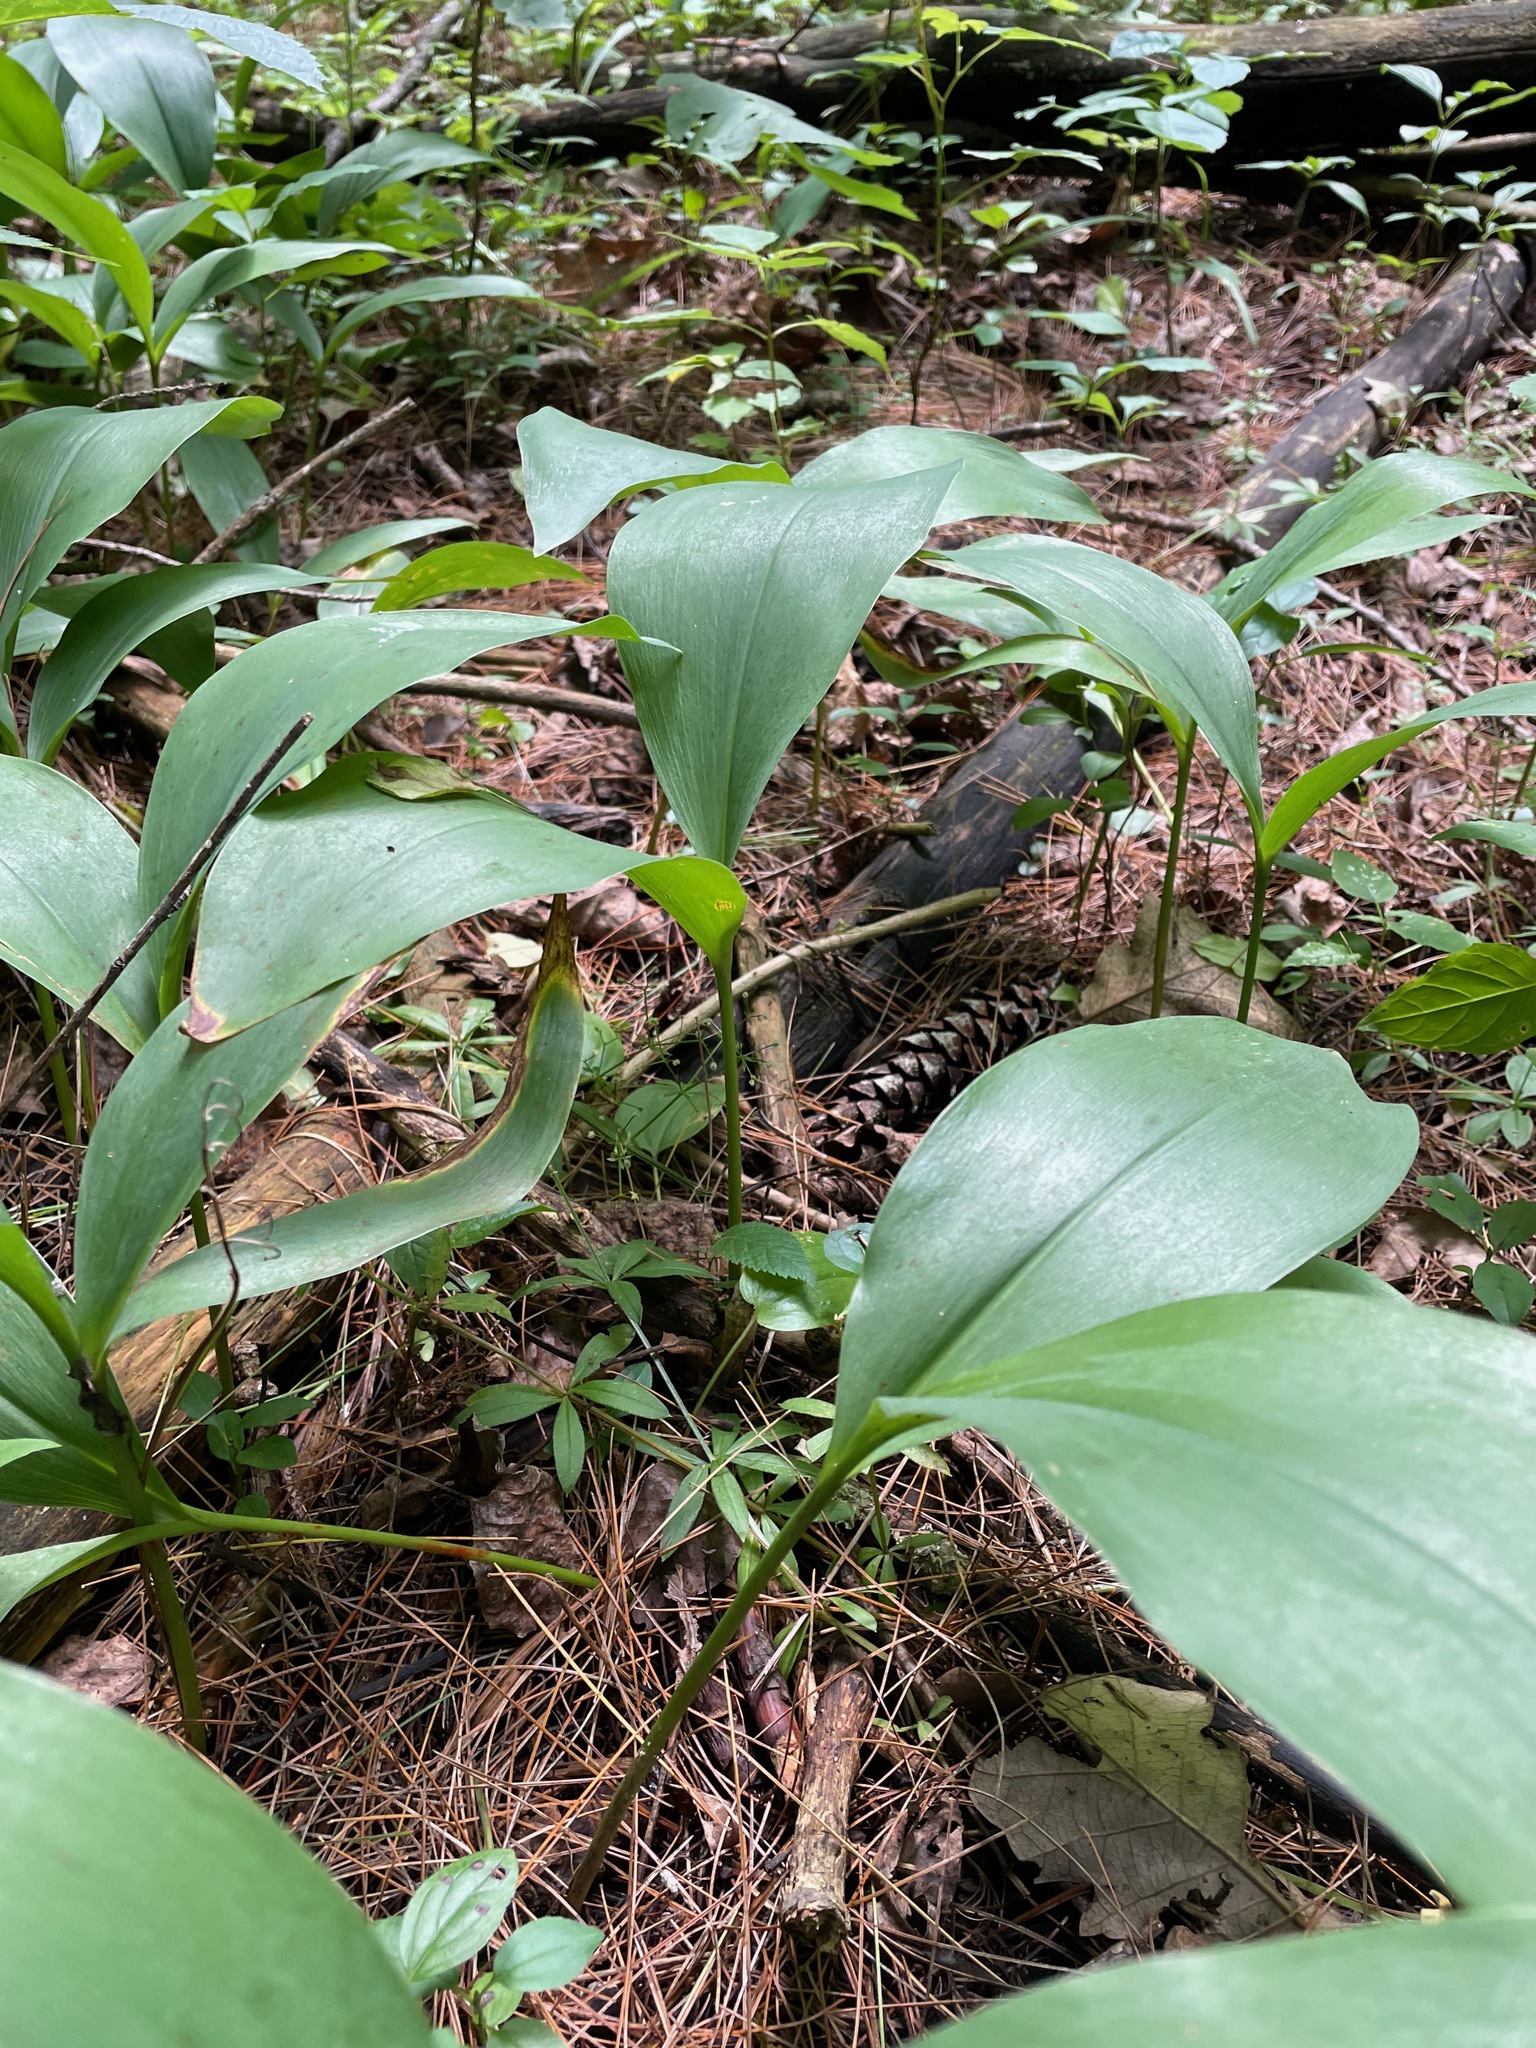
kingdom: Plantae
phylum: Tracheophyta
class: Liliopsida
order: Asparagales
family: Asparagaceae
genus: Convallaria
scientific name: Convallaria majalis
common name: Lily-of-the-valley
